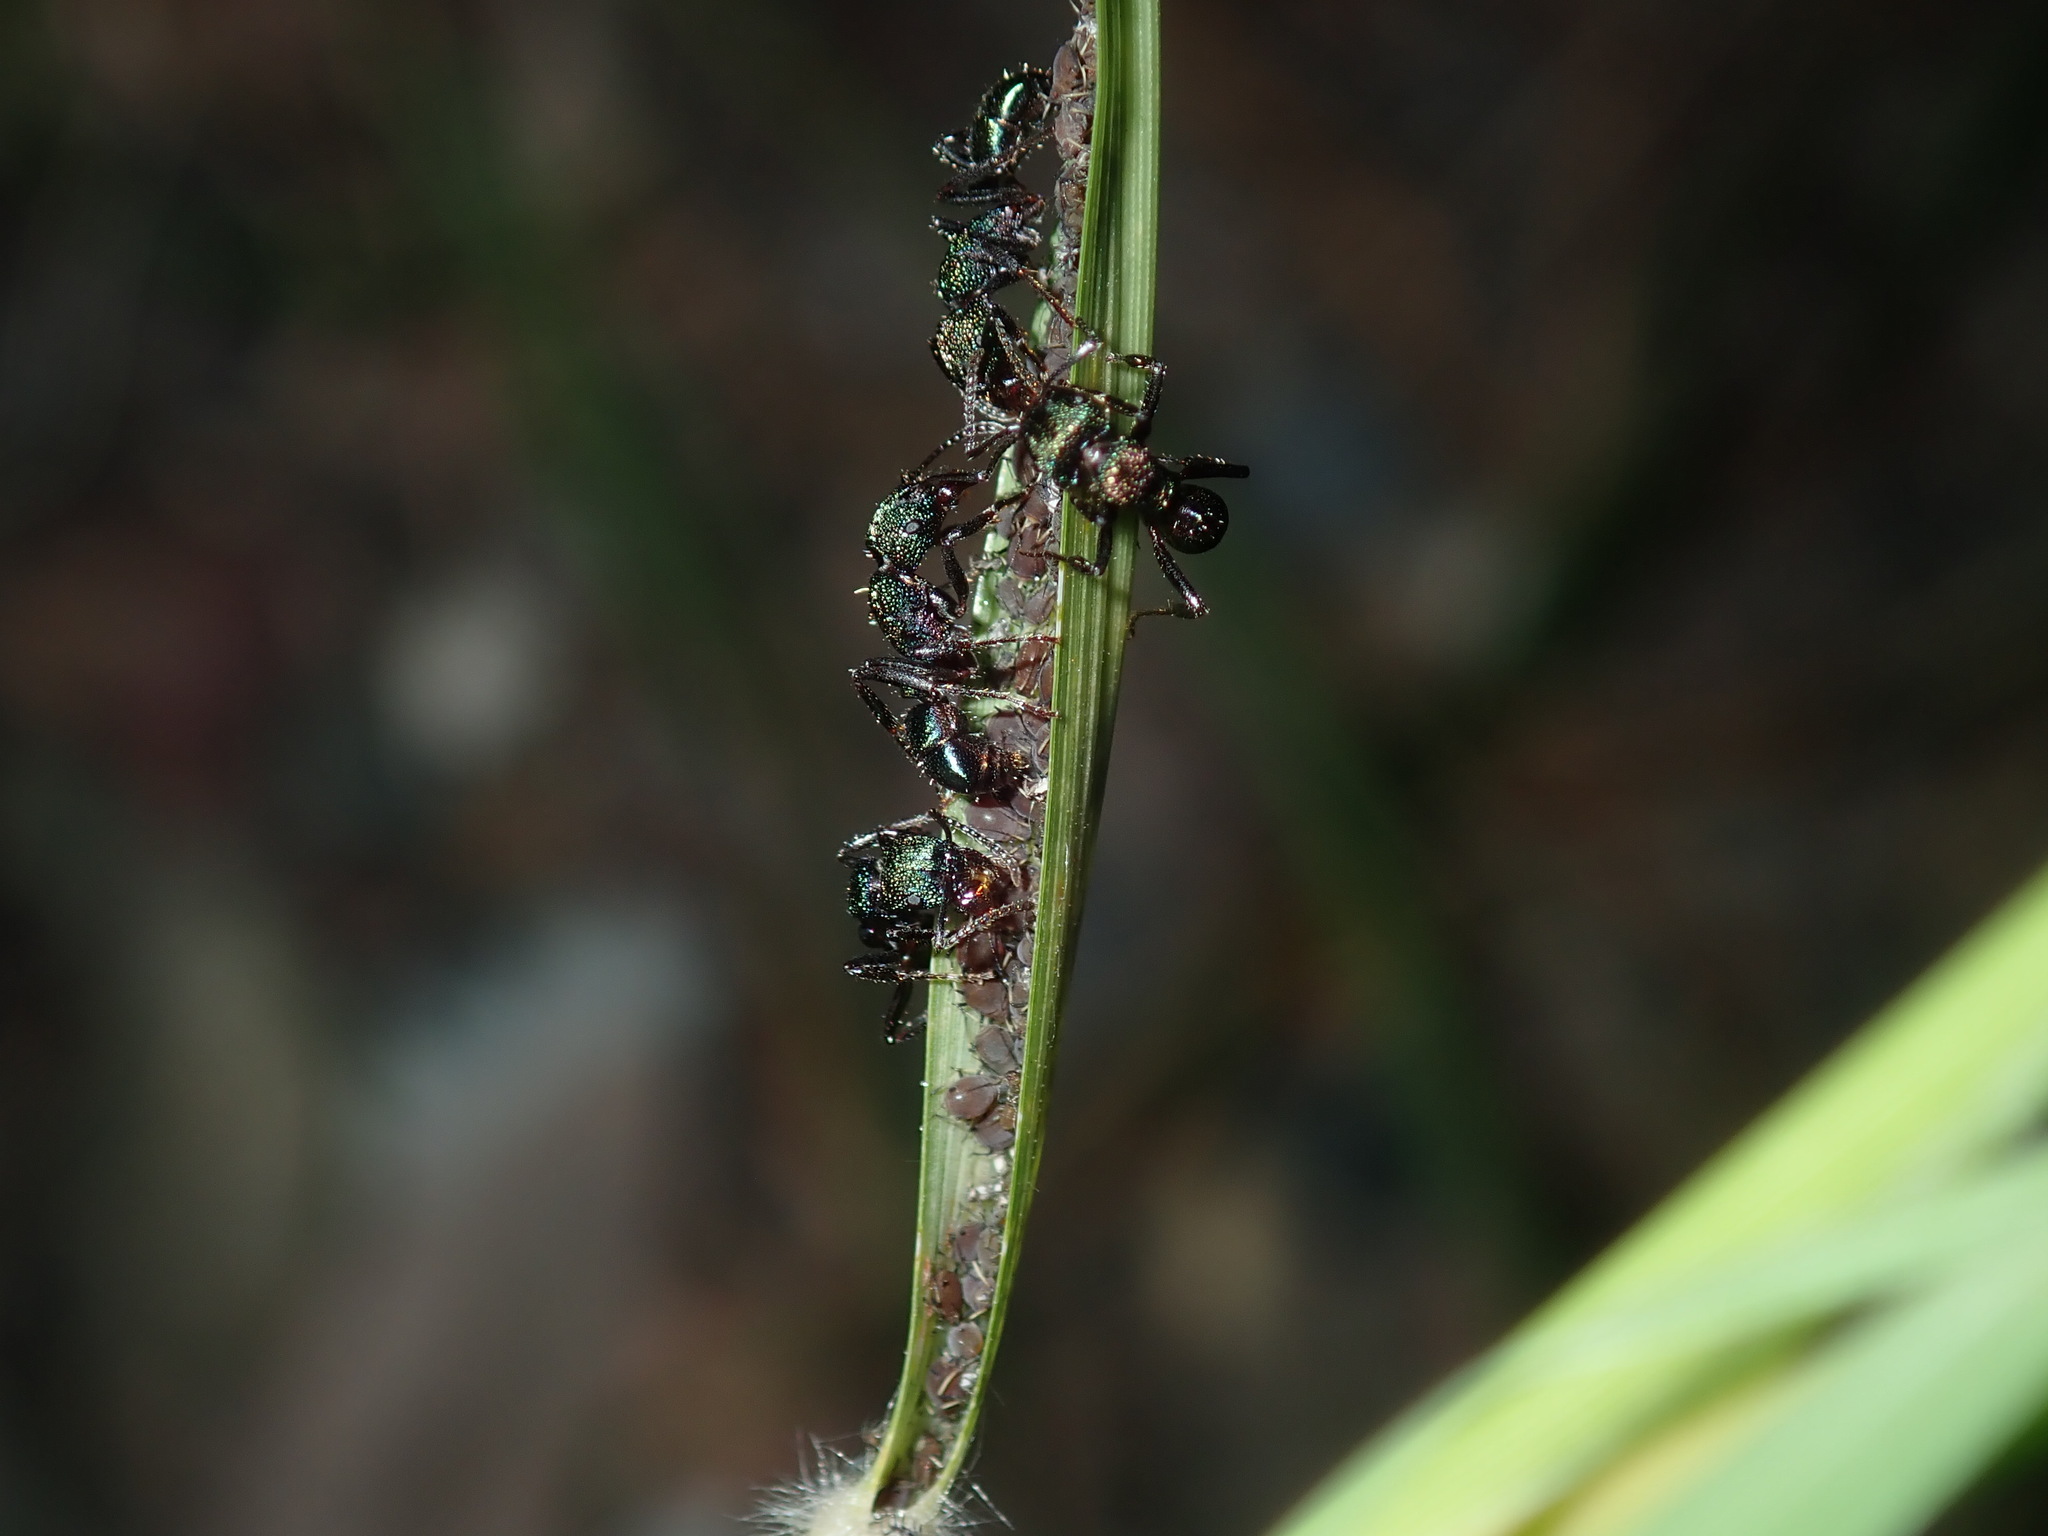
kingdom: Animalia
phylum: Arthropoda
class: Insecta
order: Hymenoptera
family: Formicidae
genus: Rhytidoponera
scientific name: Rhytidoponera metallica
